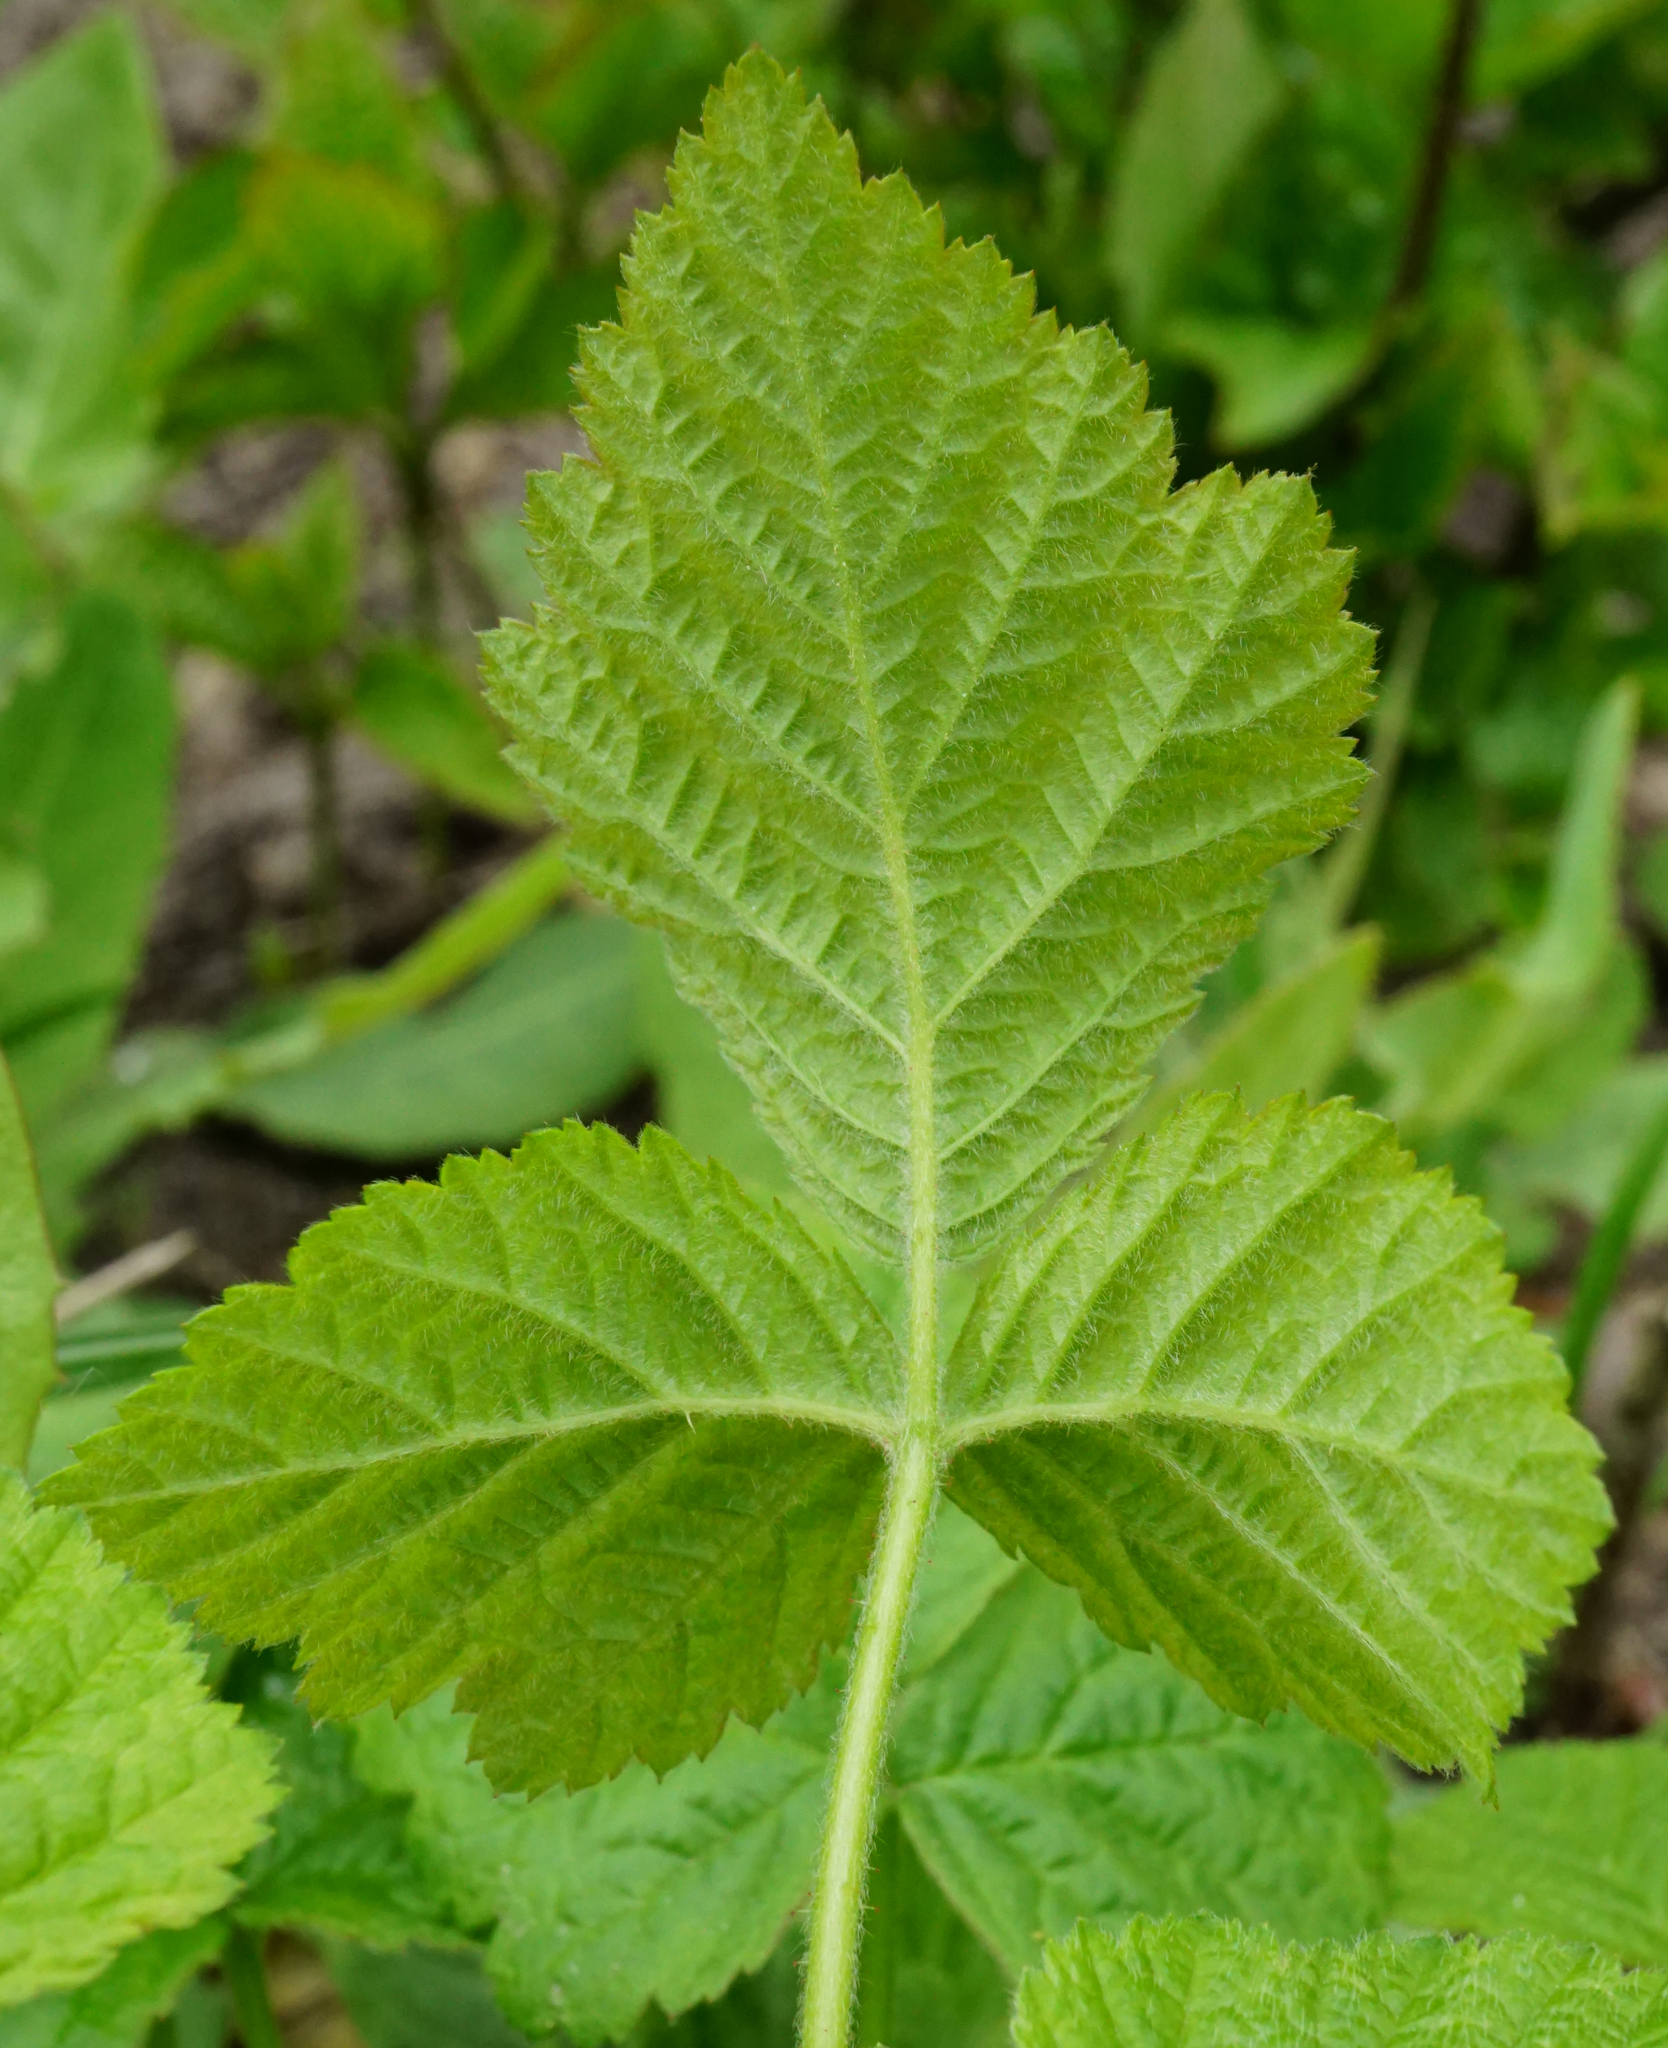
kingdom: Plantae
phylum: Tracheophyta
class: Magnoliopsida
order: Rosales
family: Rosaceae
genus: Rubus
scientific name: Rubus caesius
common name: Dewberry
